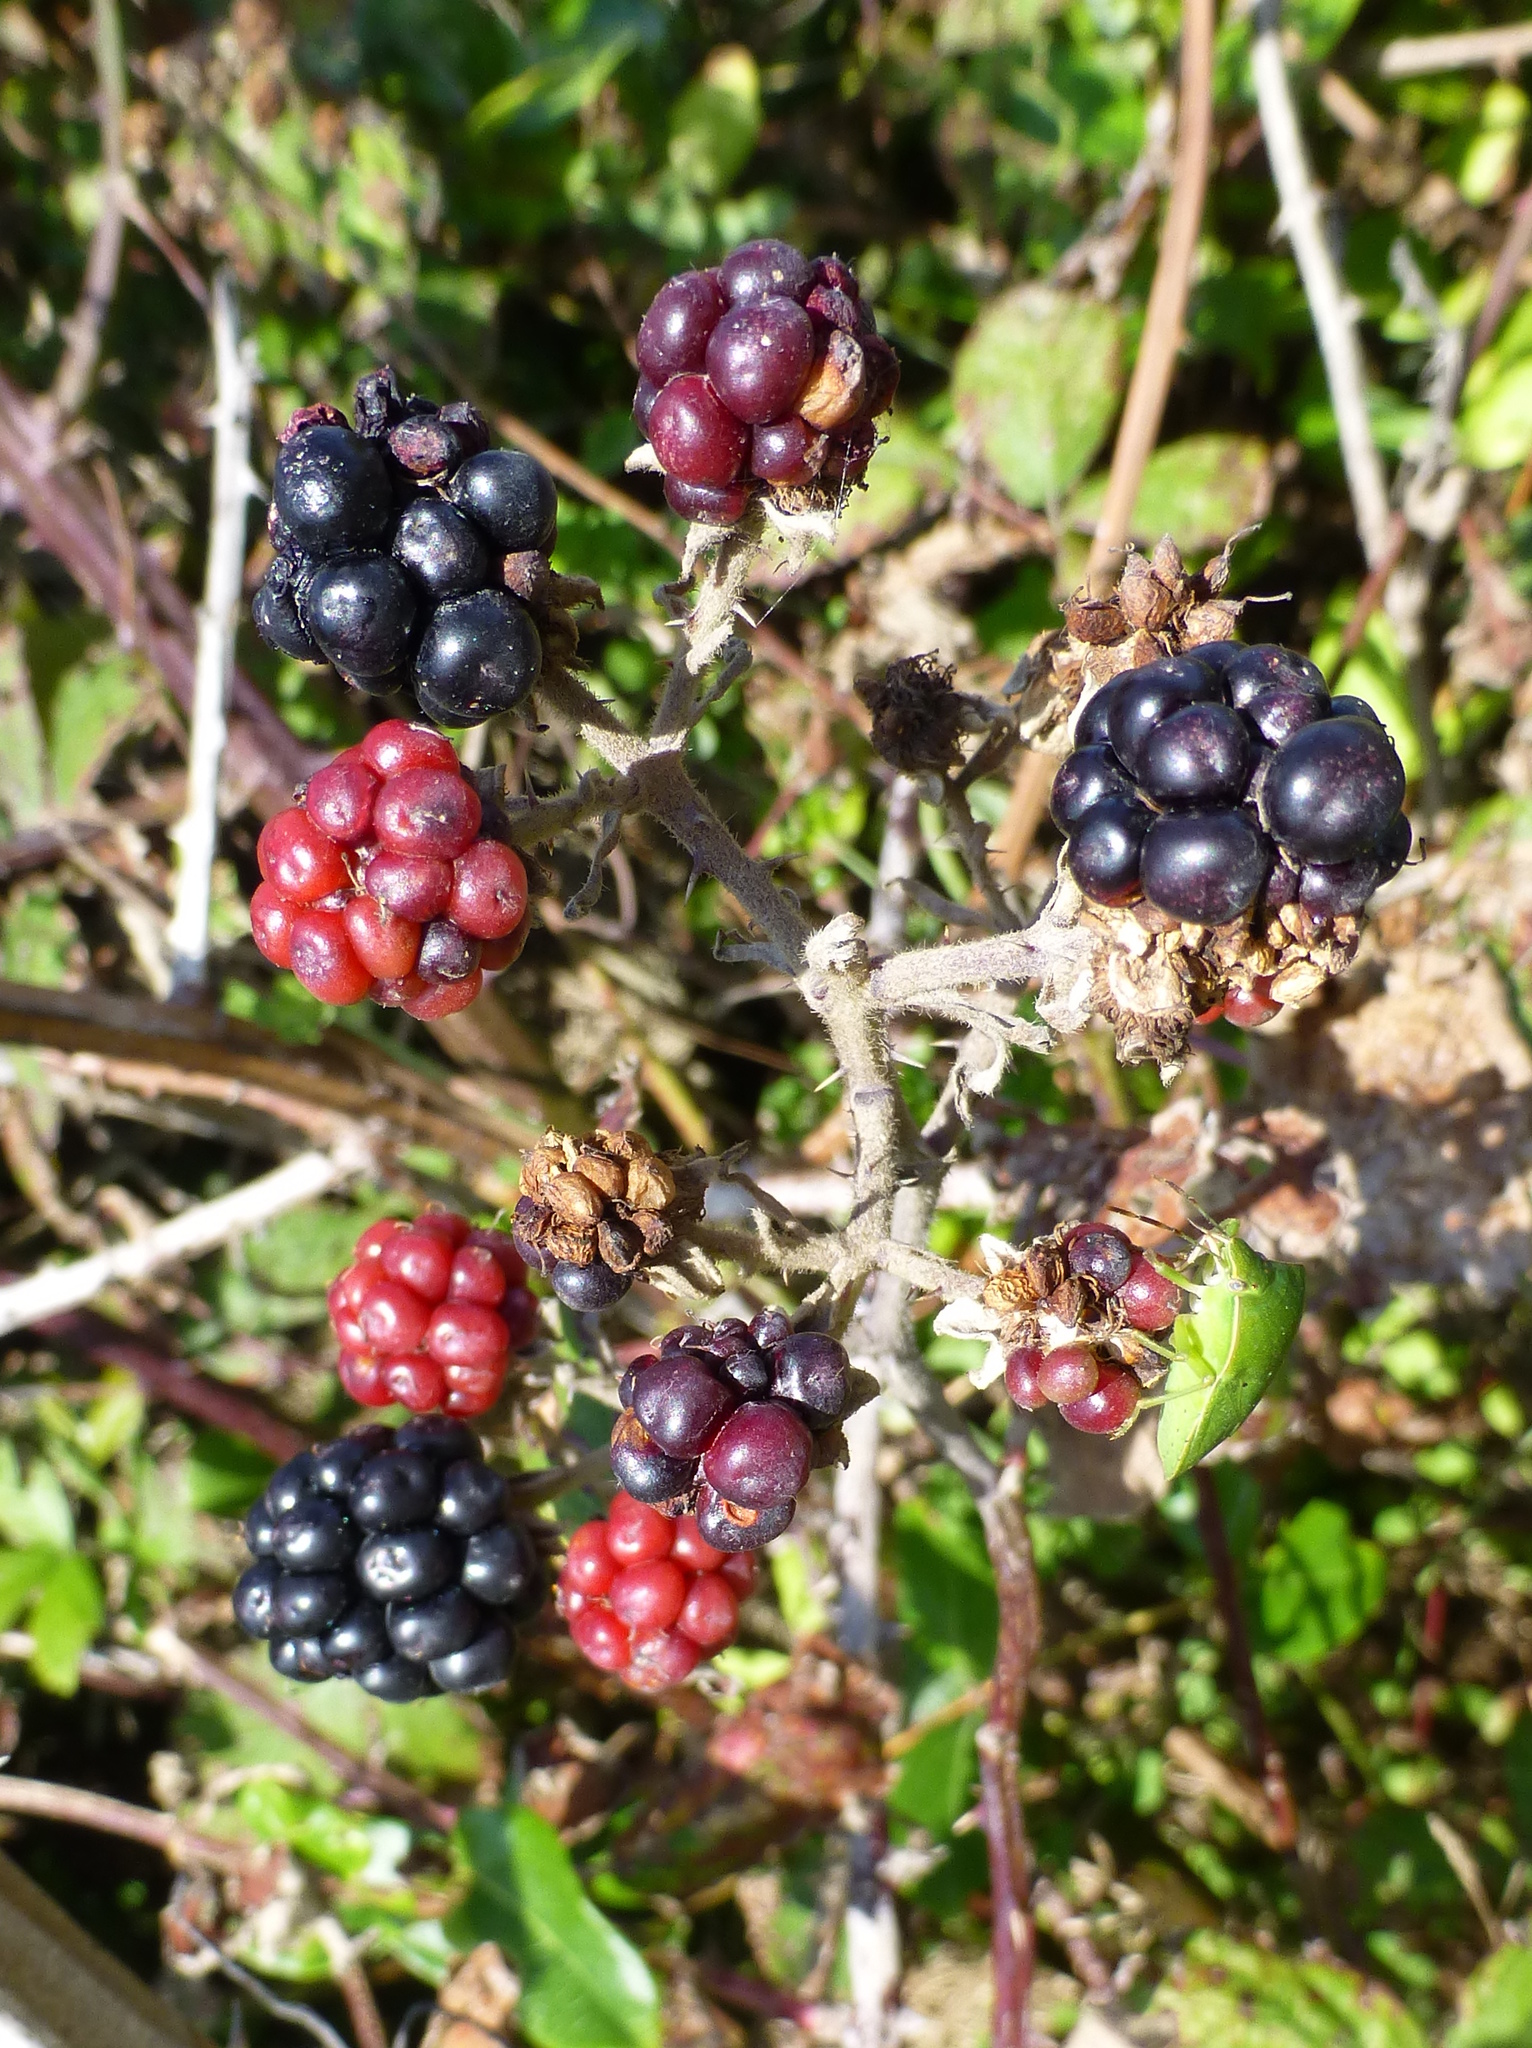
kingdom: Plantae
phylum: Tracheophyta
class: Magnoliopsida
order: Rosales
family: Rosaceae
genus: Rubus
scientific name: Rubus
